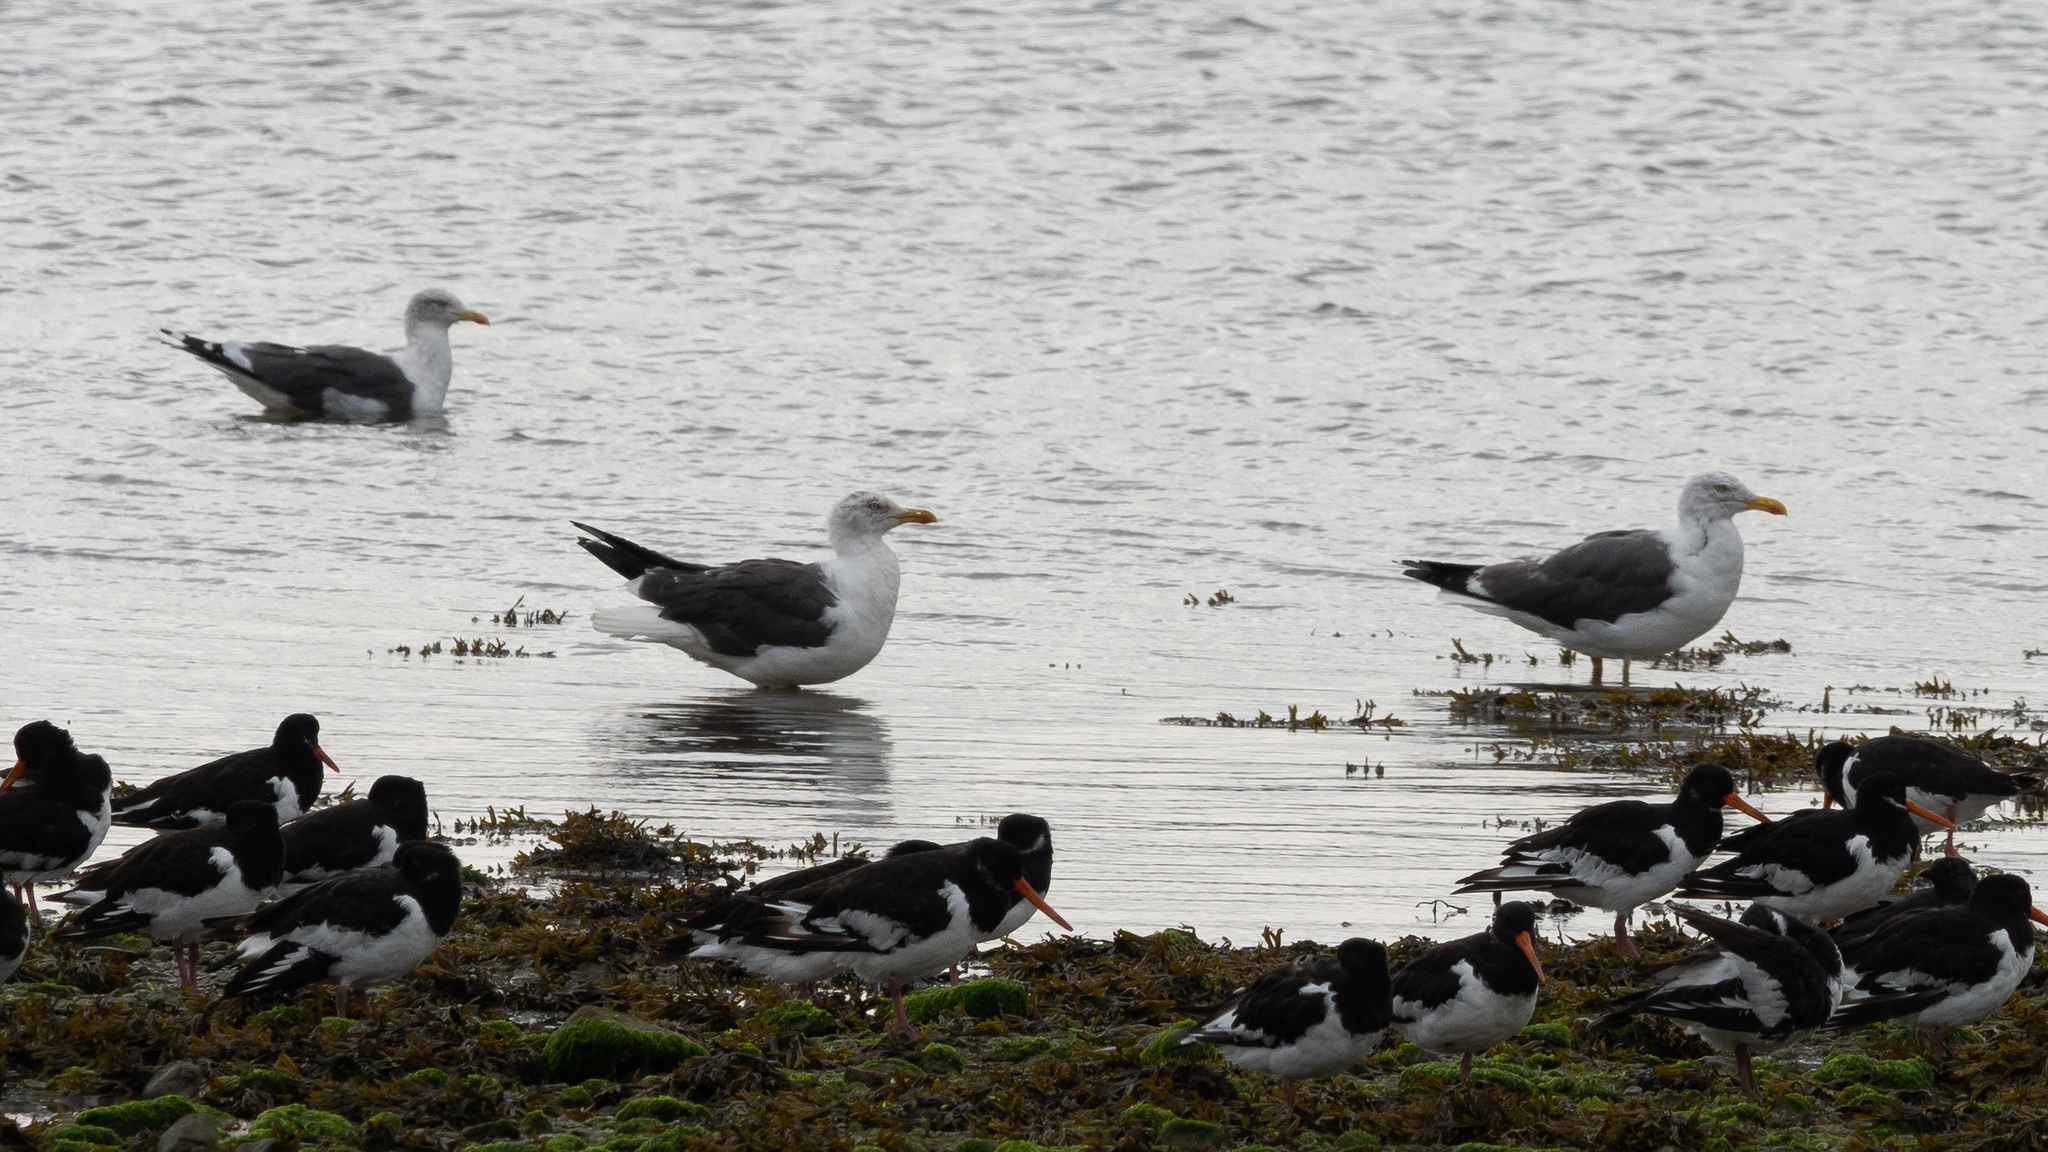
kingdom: Animalia
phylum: Chordata
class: Aves
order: Charadriiformes
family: Laridae
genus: Larus
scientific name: Larus fuscus
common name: Lesser black-backed gull
